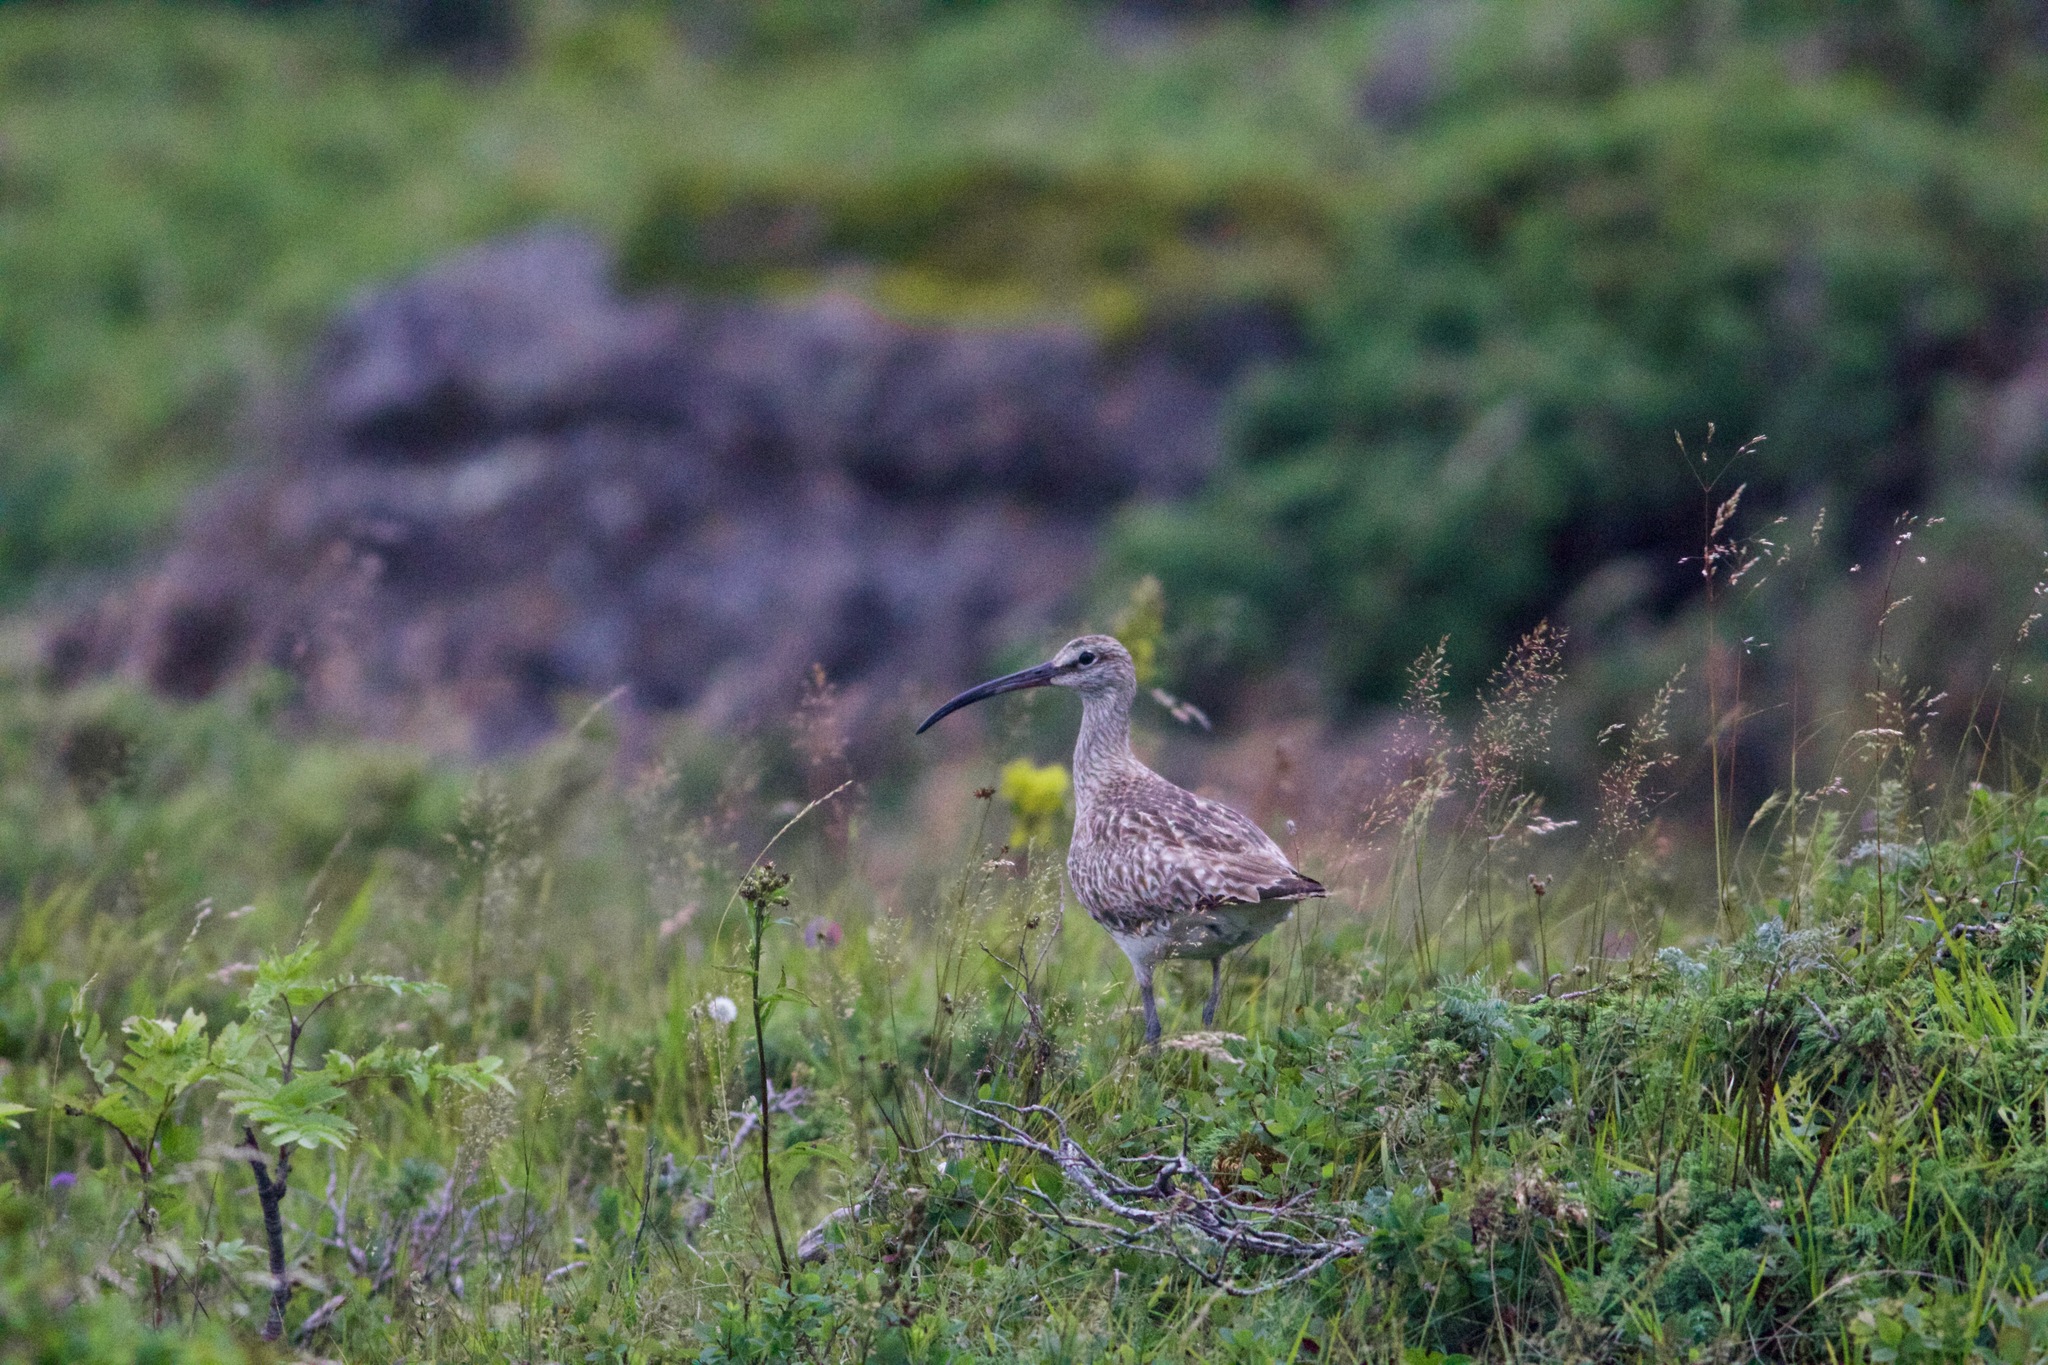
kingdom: Animalia
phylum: Chordata
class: Aves
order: Charadriiformes
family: Scolopacidae
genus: Numenius
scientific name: Numenius phaeopus
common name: Whimbrel
